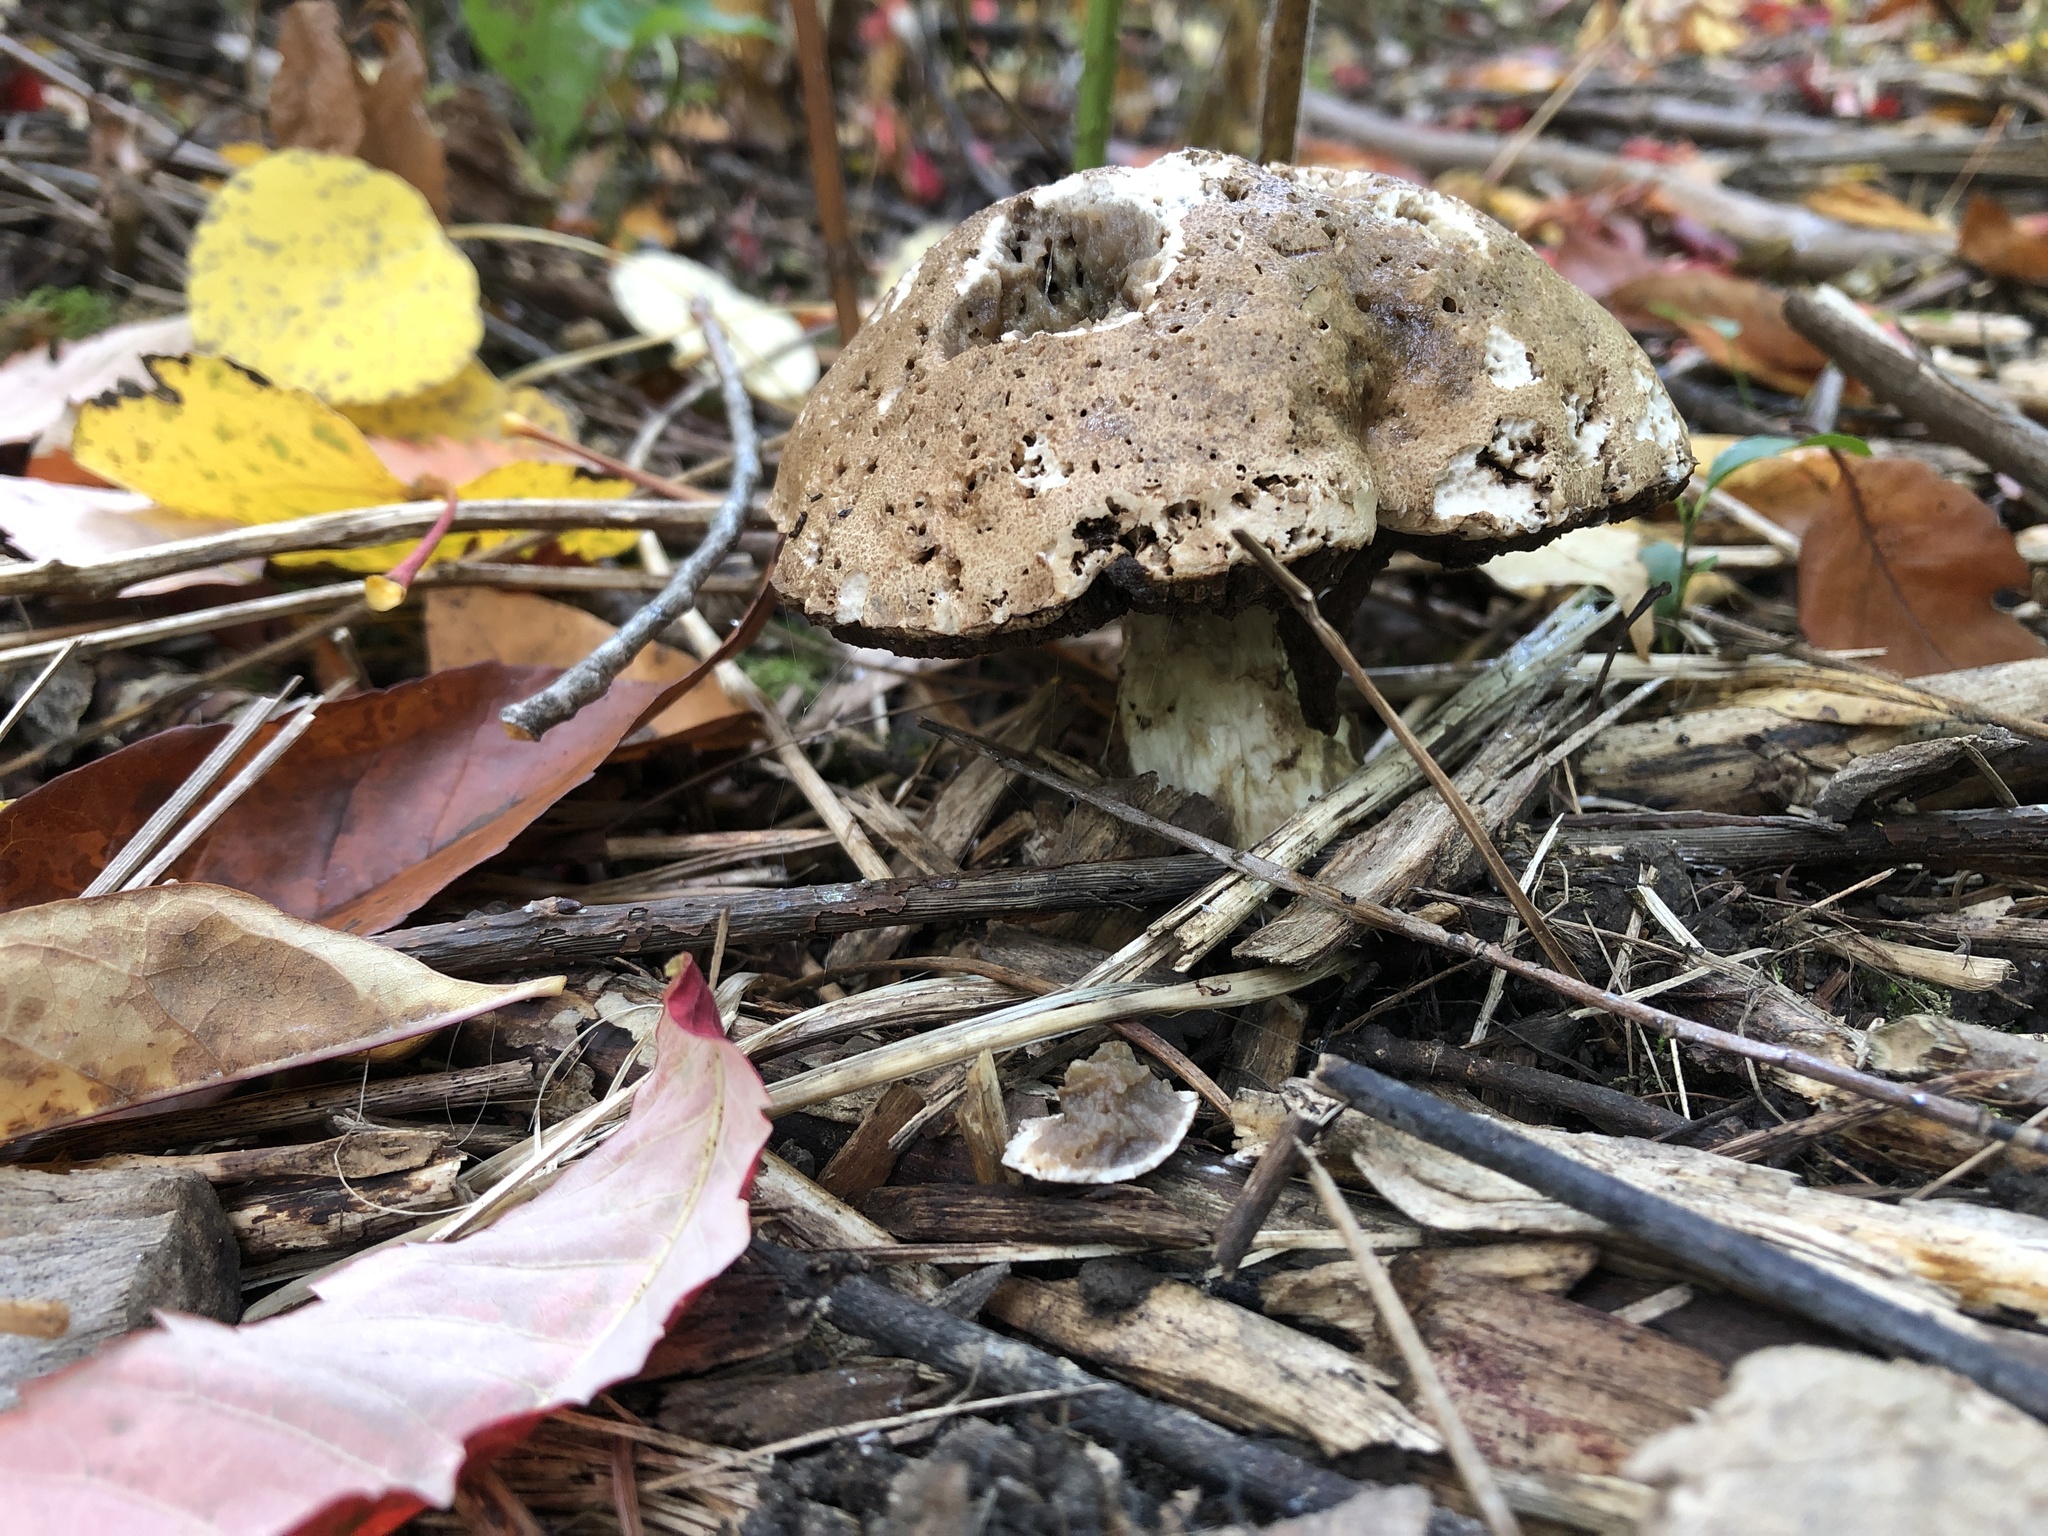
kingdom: Fungi
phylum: Basidiomycota
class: Agaricomycetes
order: Boletales
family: Boletaceae
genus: Leccinum
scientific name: Leccinum scabrum
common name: Blushing bolete
